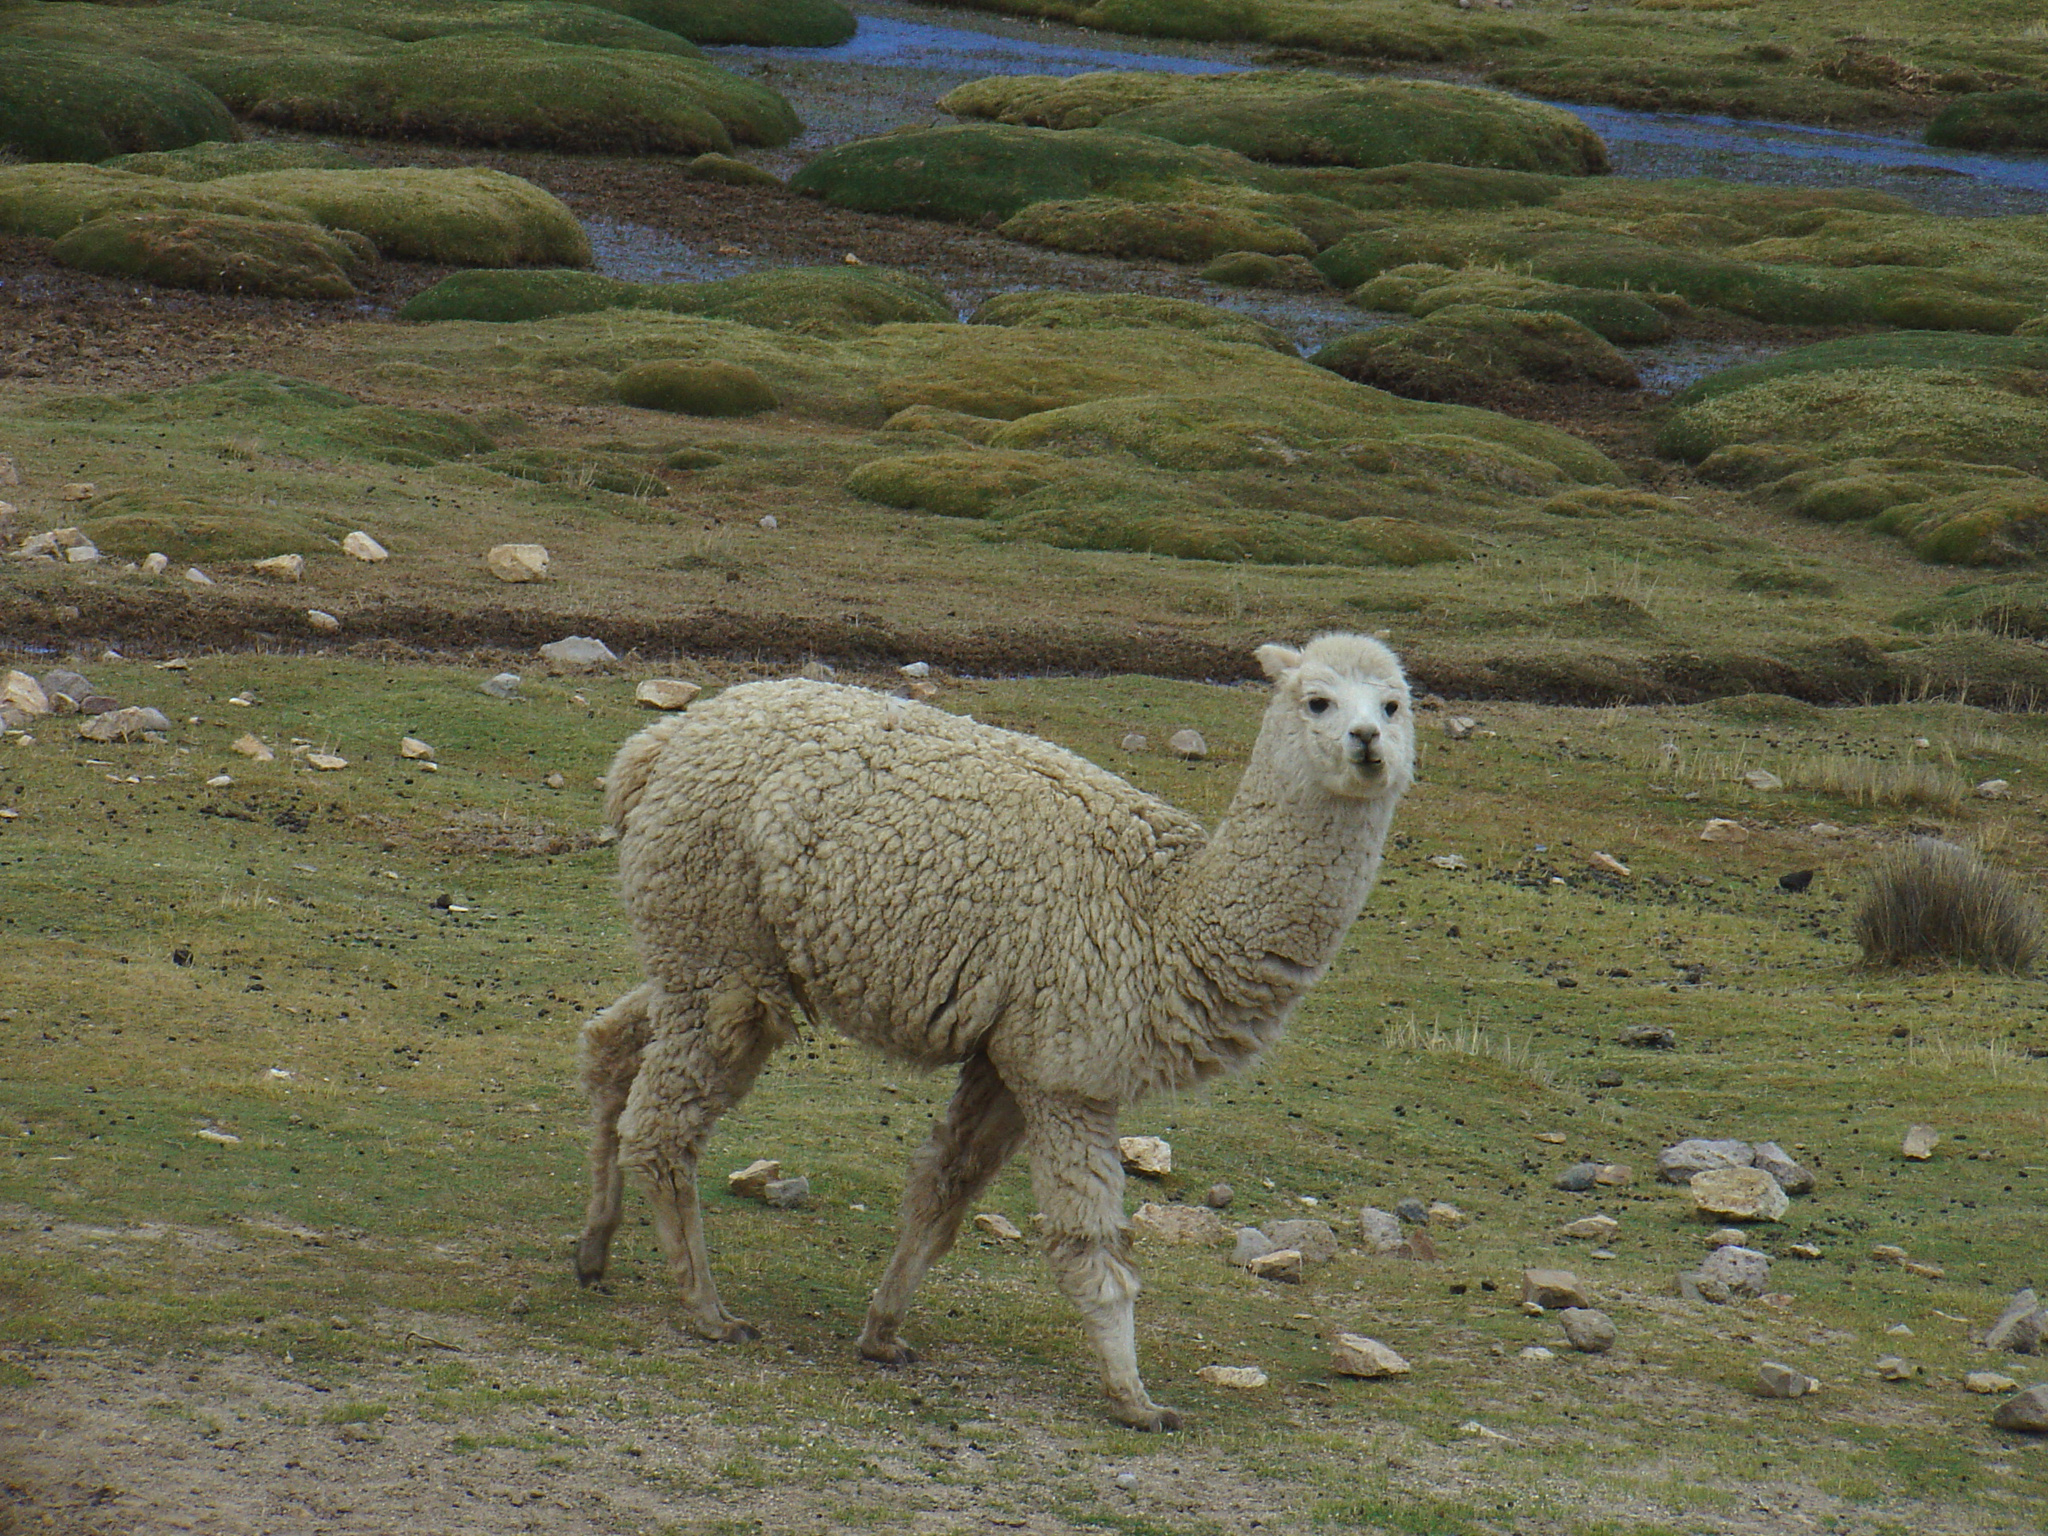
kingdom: Animalia
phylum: Chordata
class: Mammalia
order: Artiodactyla
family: Camelidae
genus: Vicugna
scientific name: Vicugna pacos
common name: Alpaca
